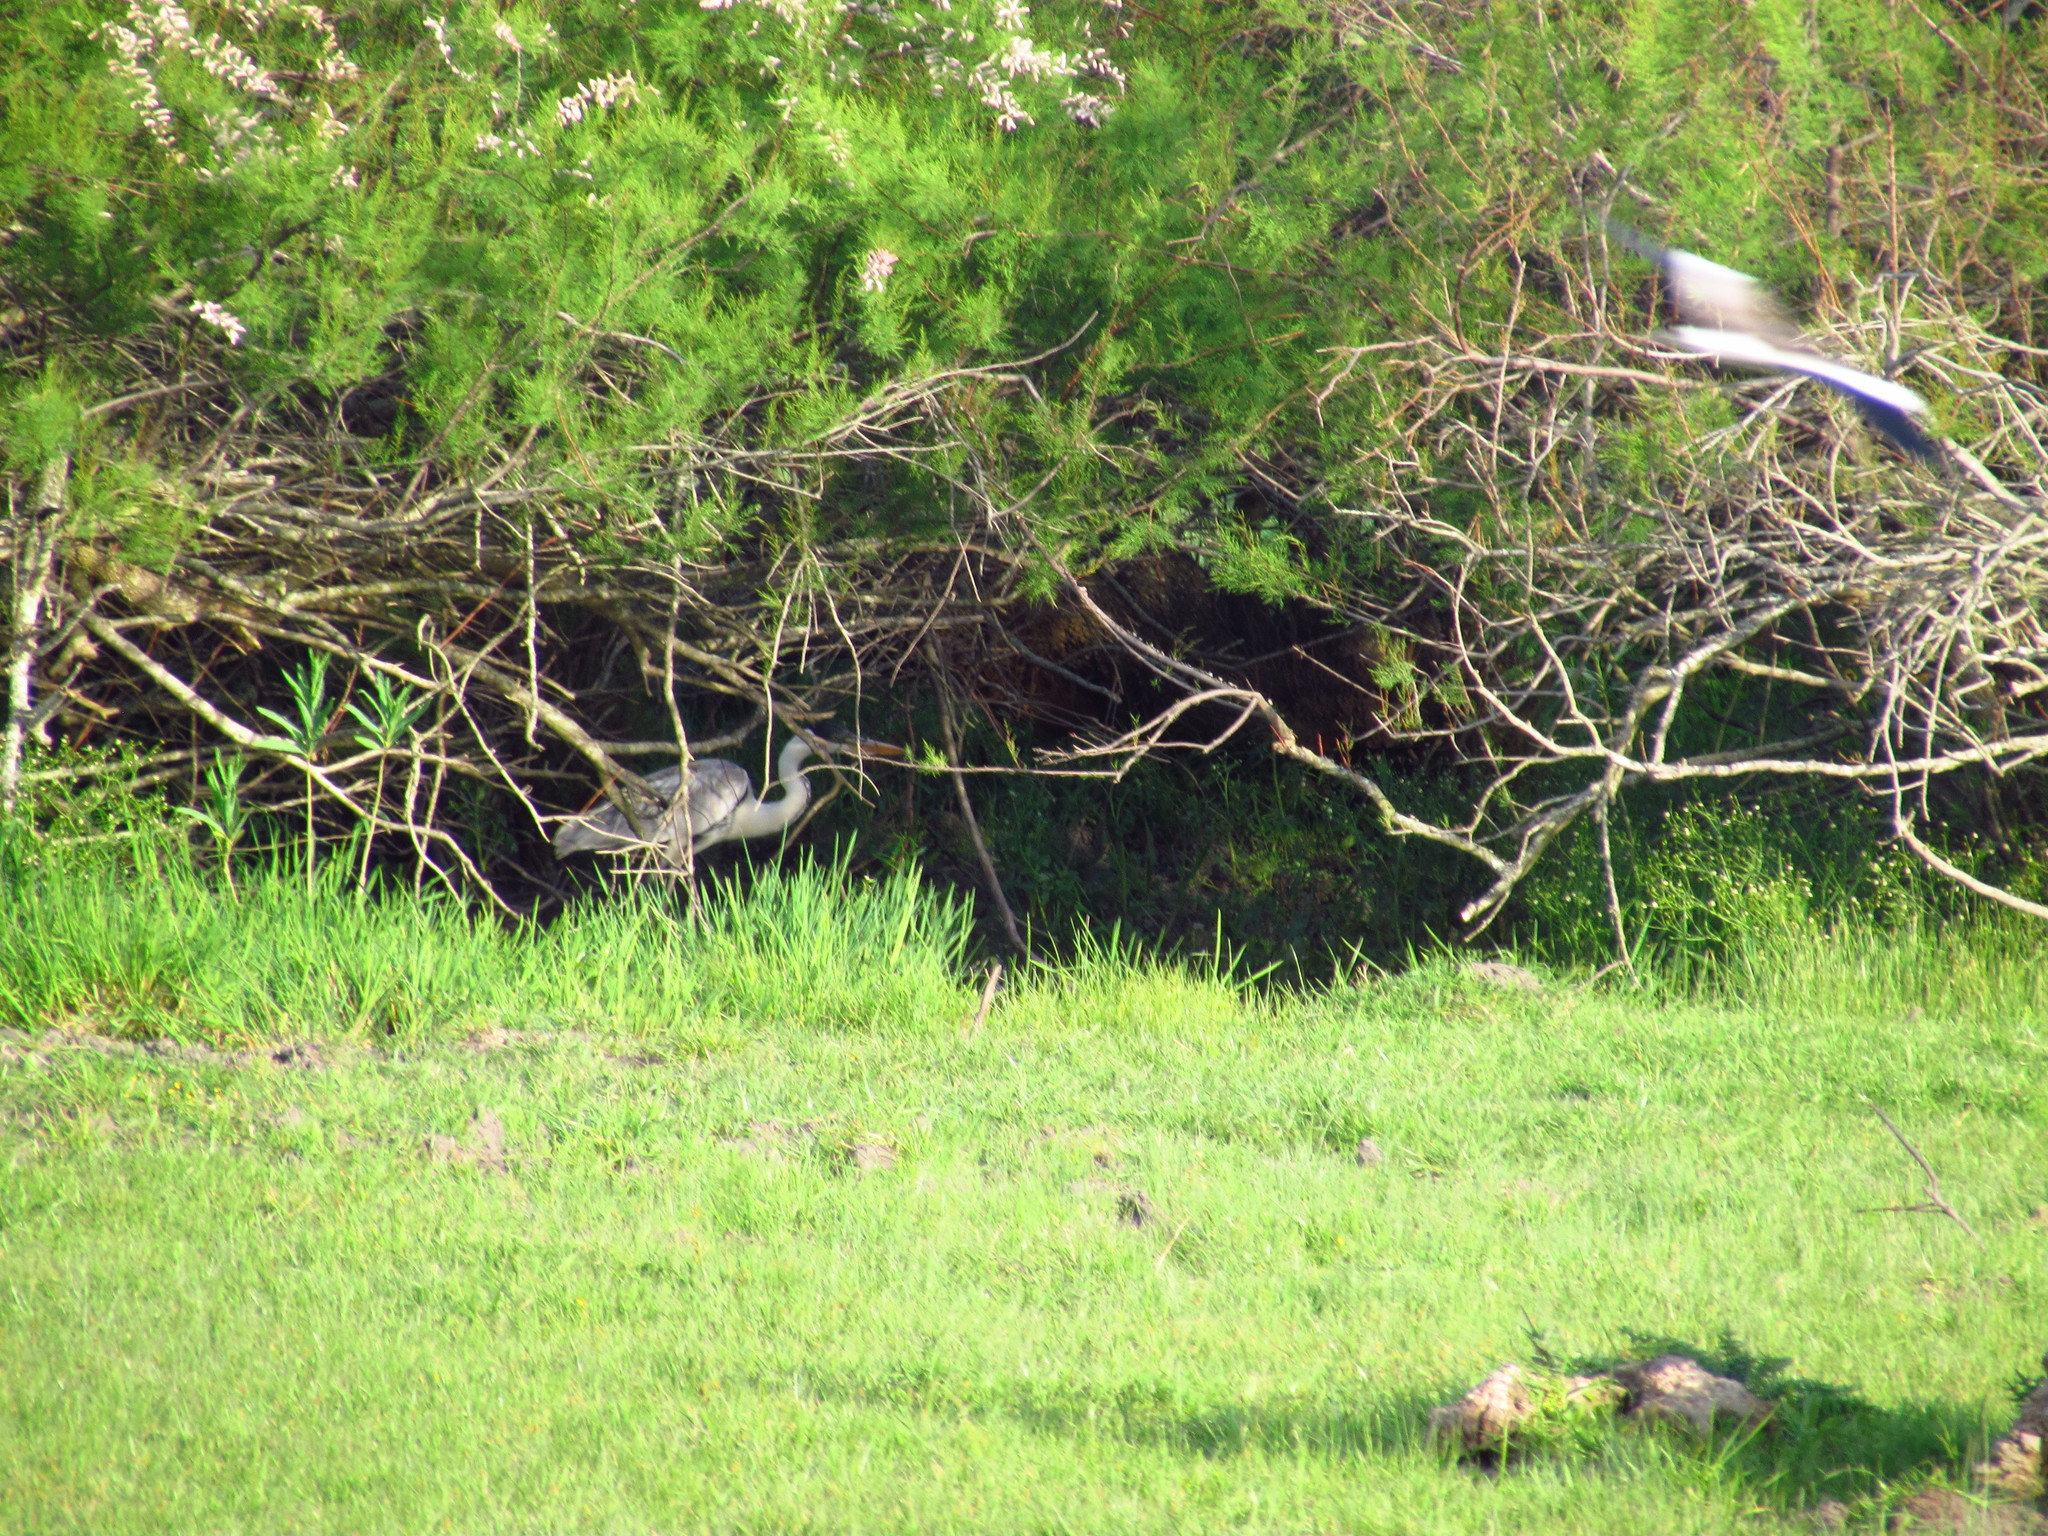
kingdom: Animalia
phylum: Chordata
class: Aves
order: Pelecaniformes
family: Ardeidae
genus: Ardea
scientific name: Ardea cocoi
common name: Cocoi heron
